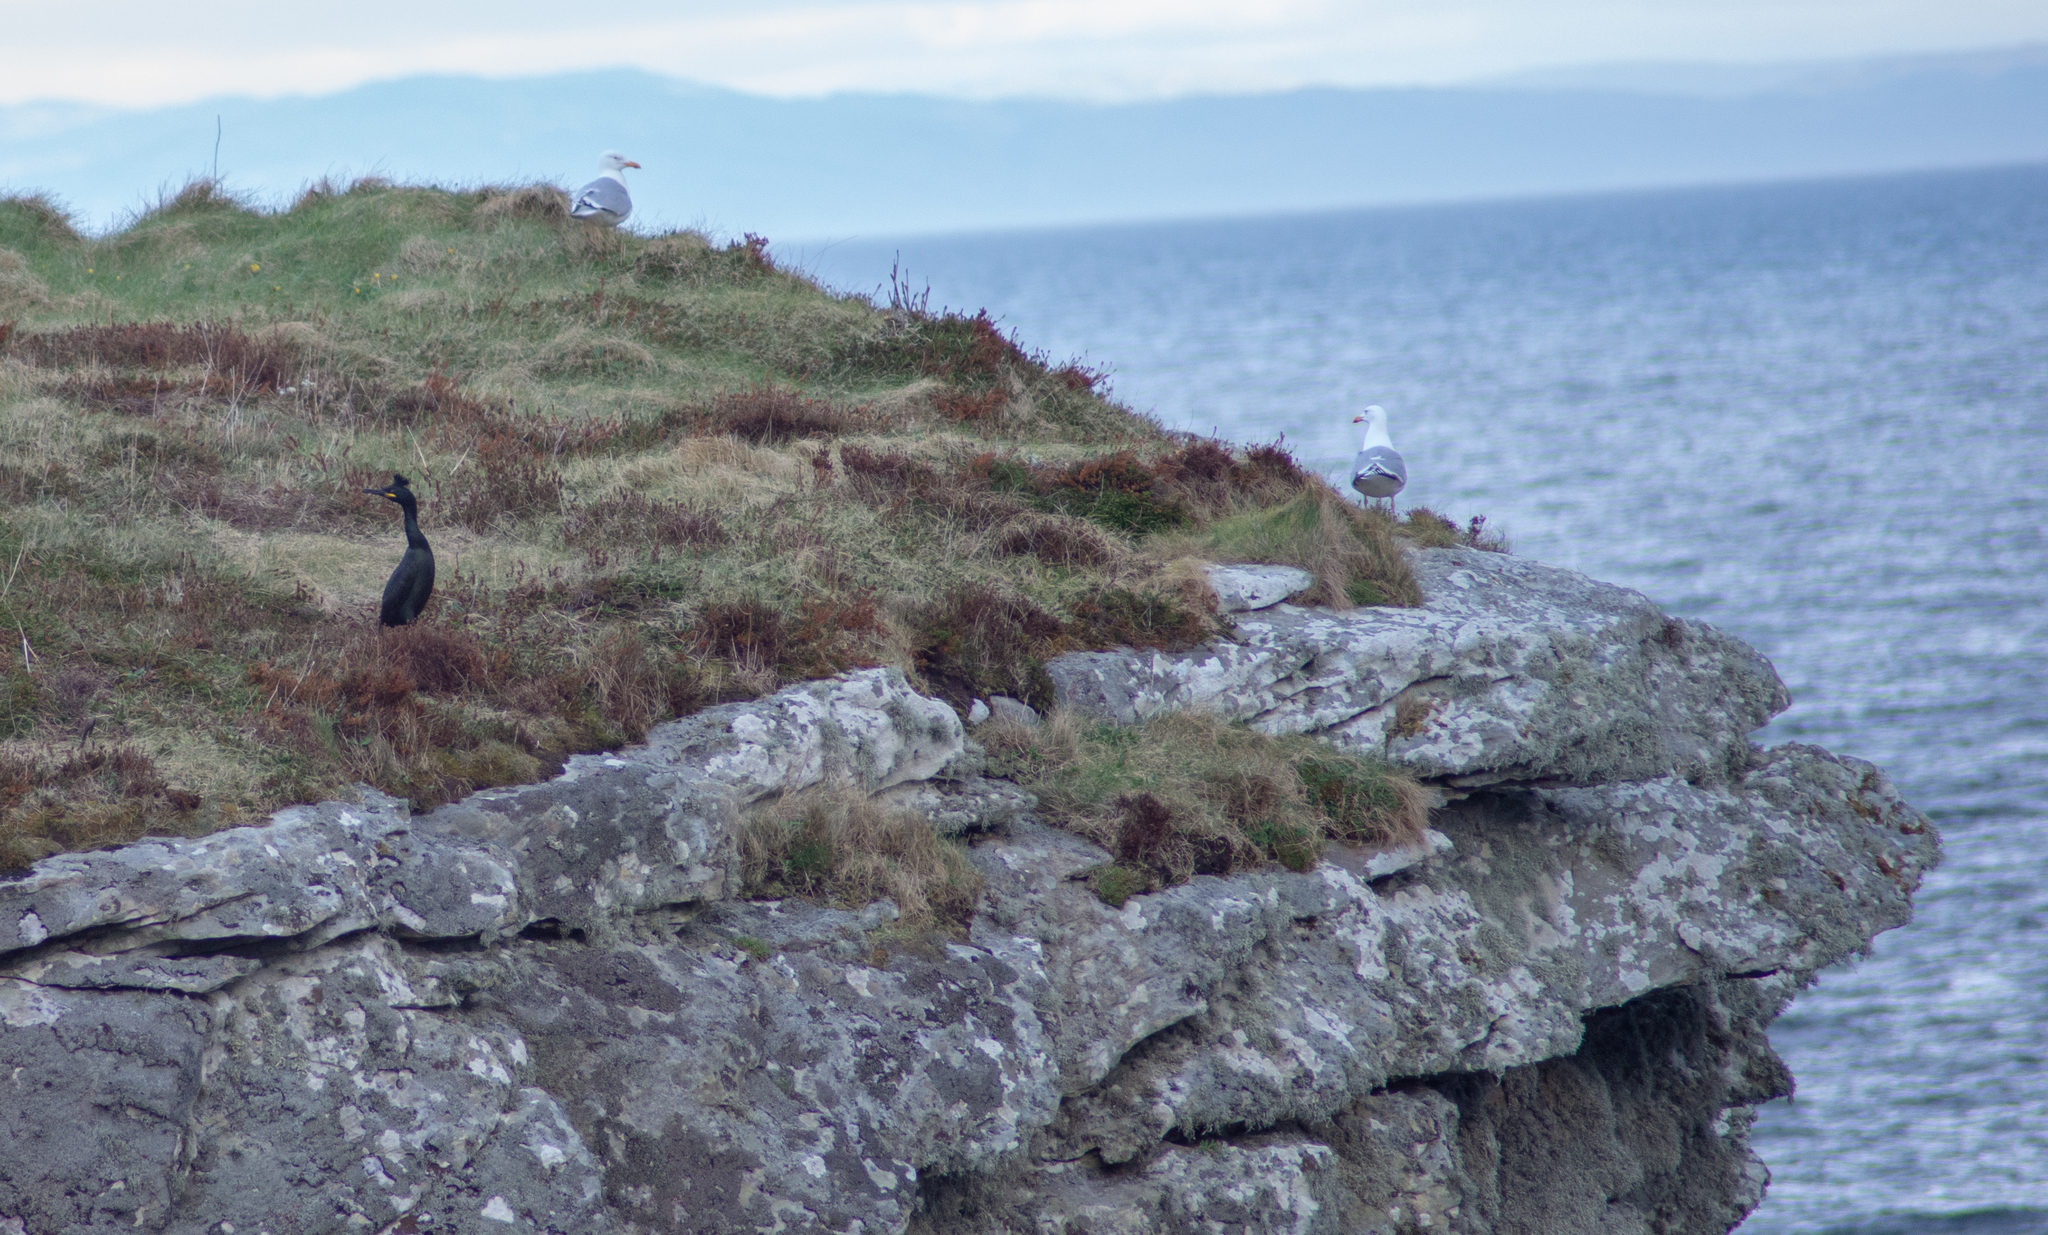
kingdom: Animalia
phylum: Chordata
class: Aves
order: Suliformes
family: Phalacrocoracidae
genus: Phalacrocorax
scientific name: Phalacrocorax aristotelis
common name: European shag
